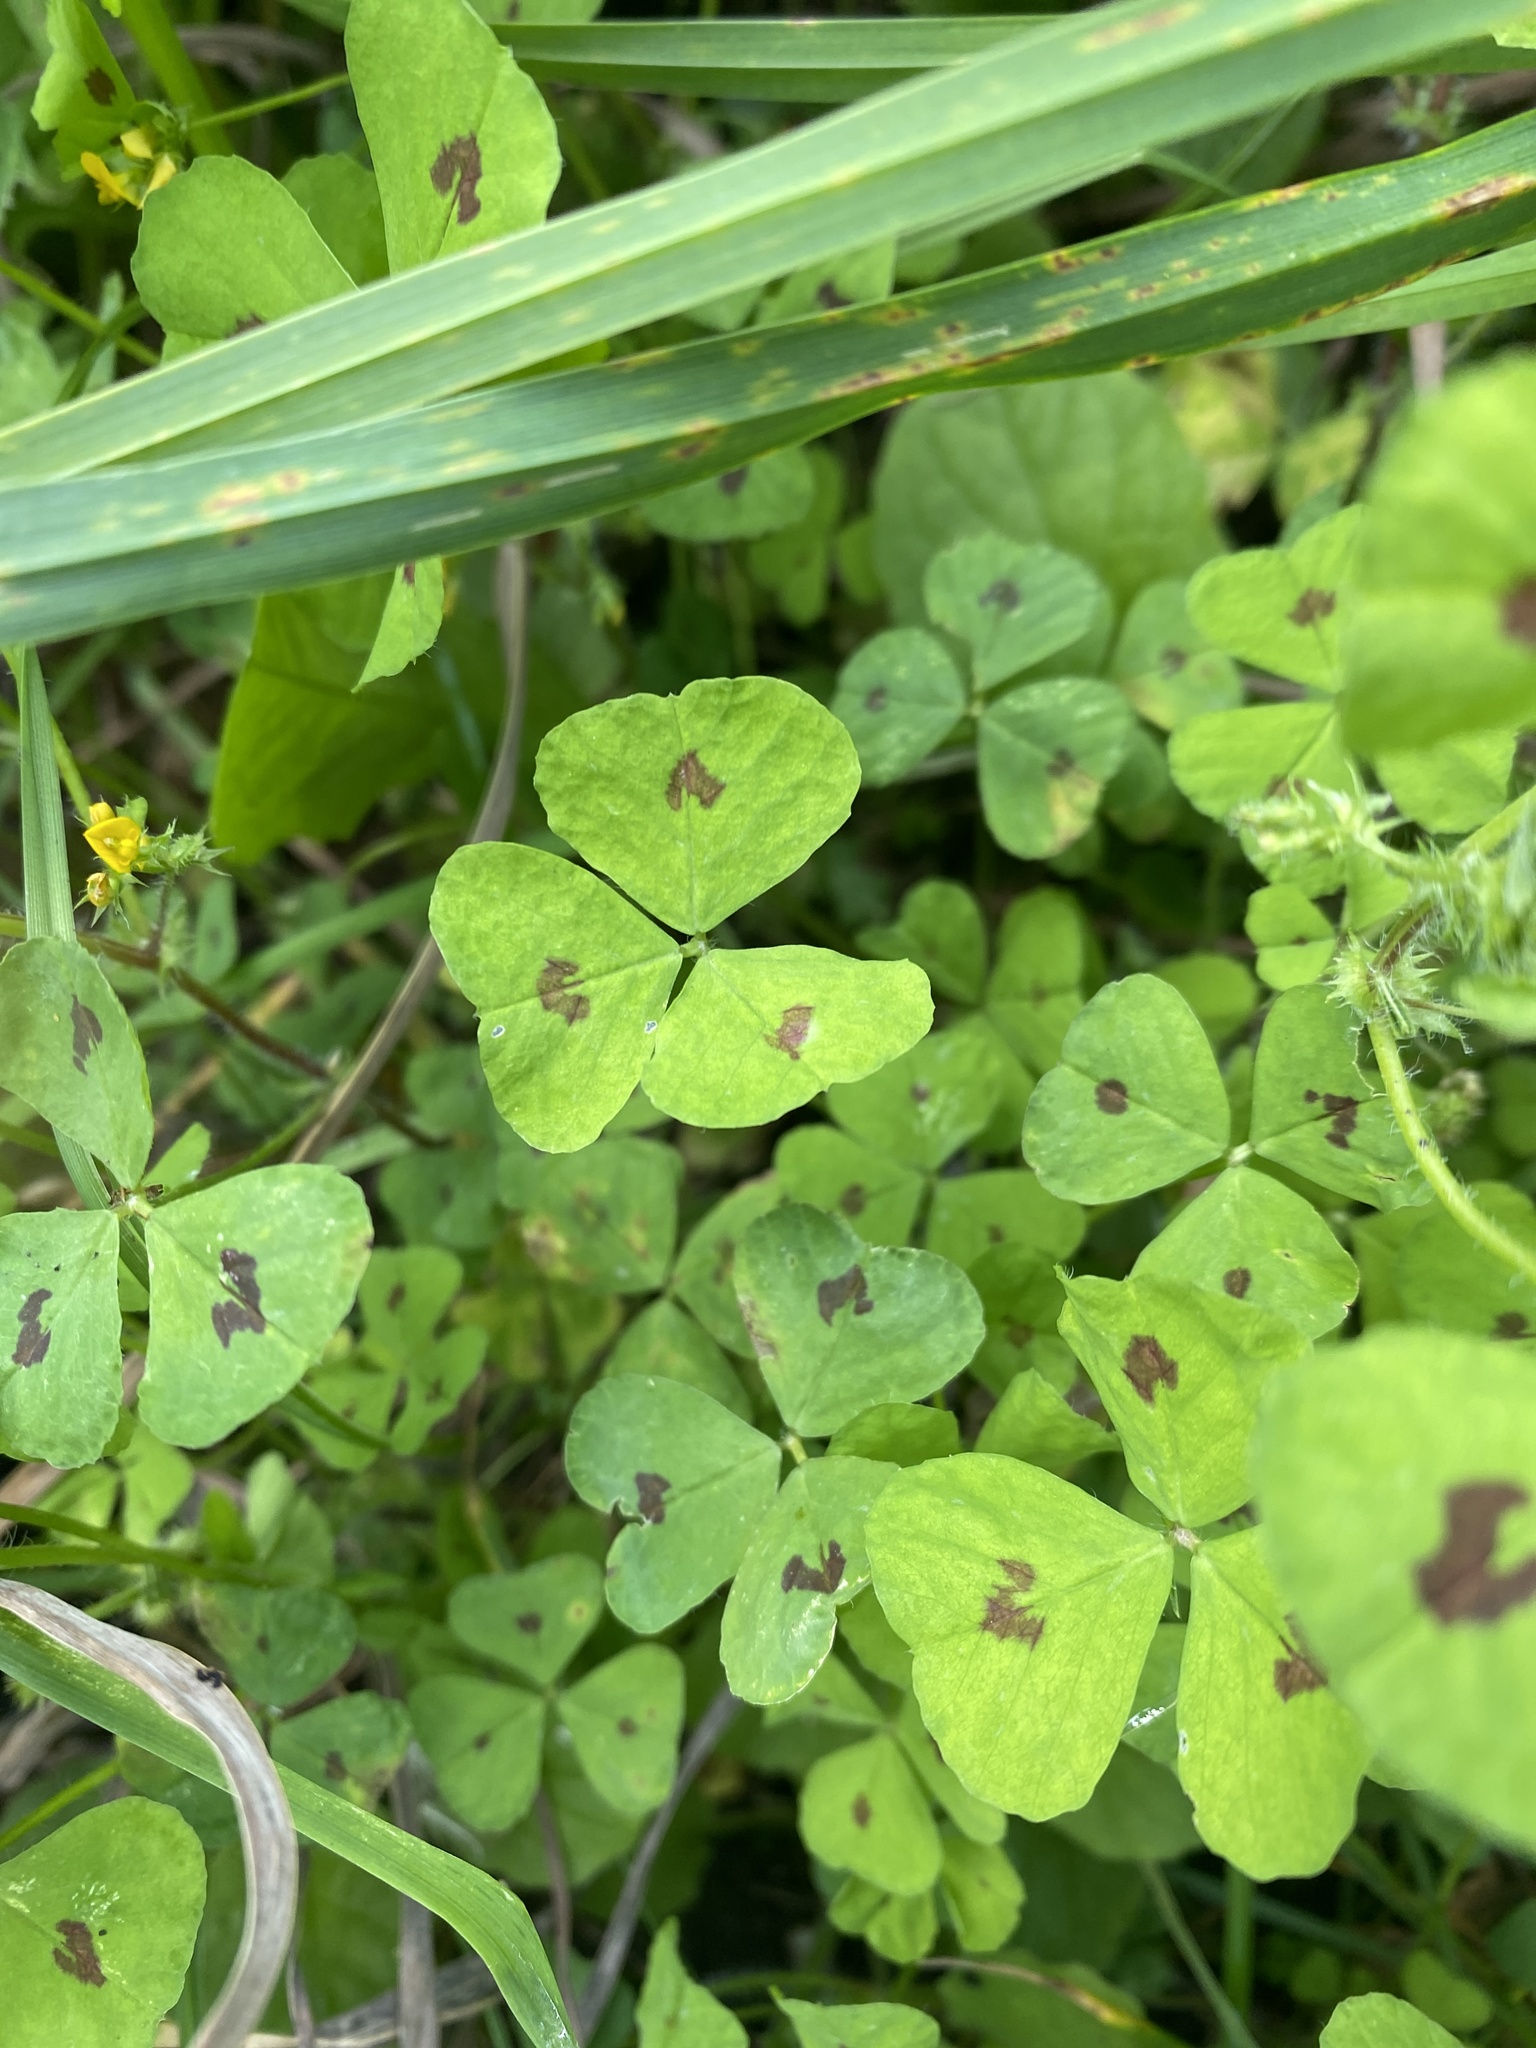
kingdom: Plantae
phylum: Tracheophyta
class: Magnoliopsida
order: Fabales
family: Fabaceae
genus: Medicago
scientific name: Medicago arabica
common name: Spotted medick
